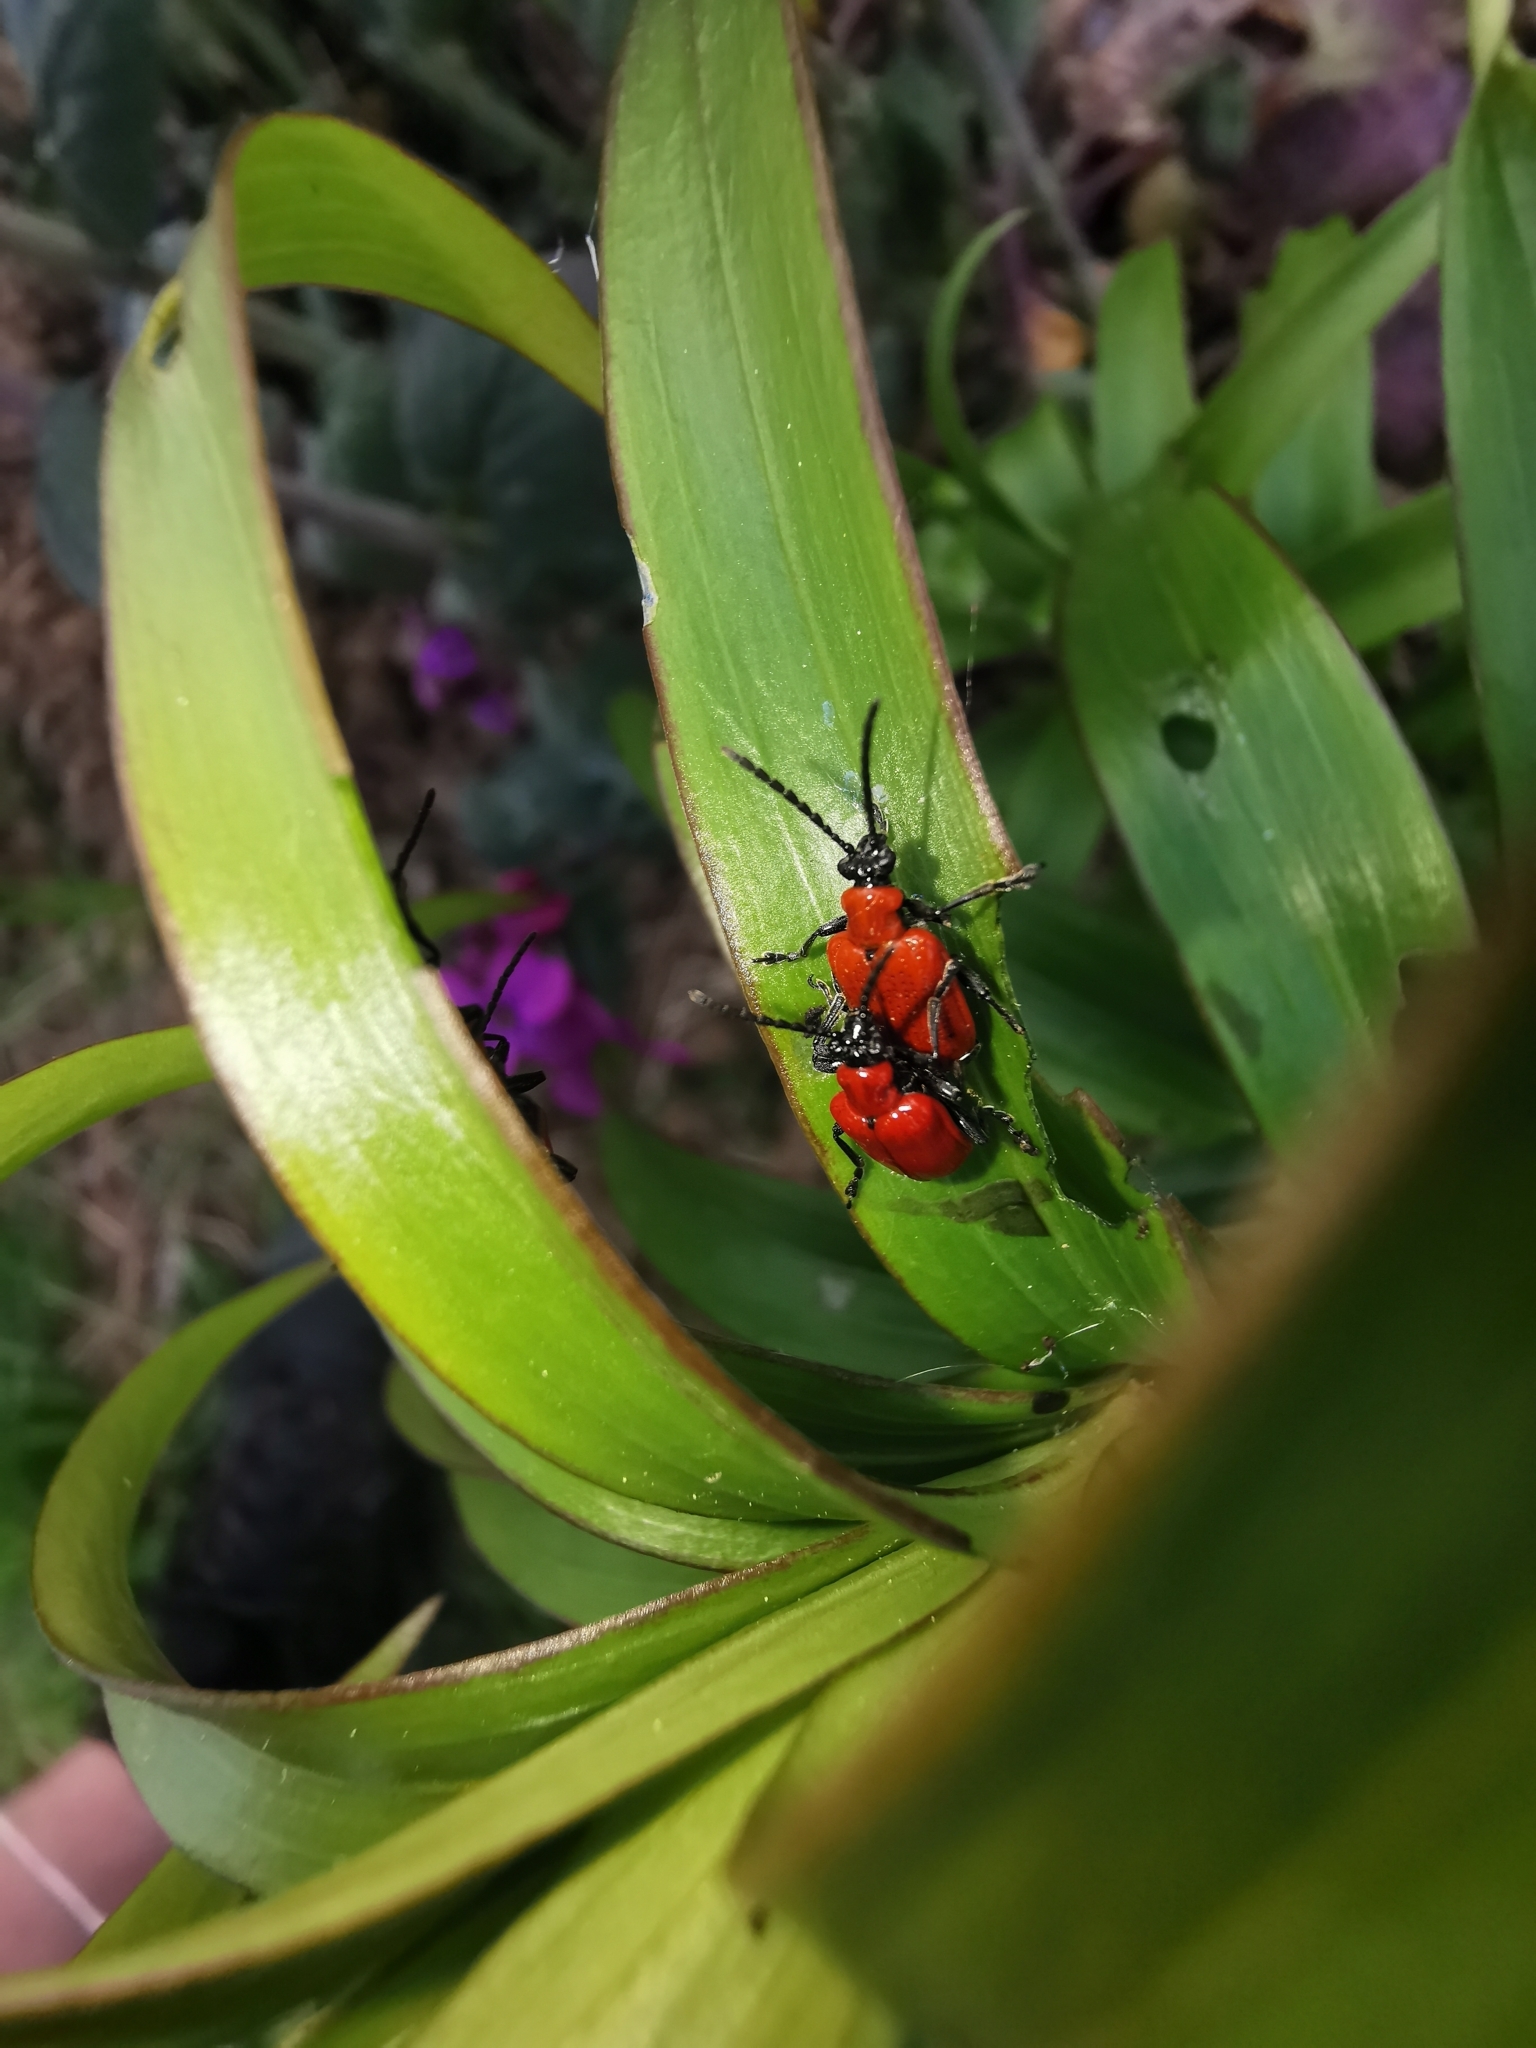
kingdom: Animalia
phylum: Arthropoda
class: Insecta
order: Coleoptera
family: Chrysomelidae
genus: Lilioceris
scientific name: Lilioceris lilii
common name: Lily beetle
